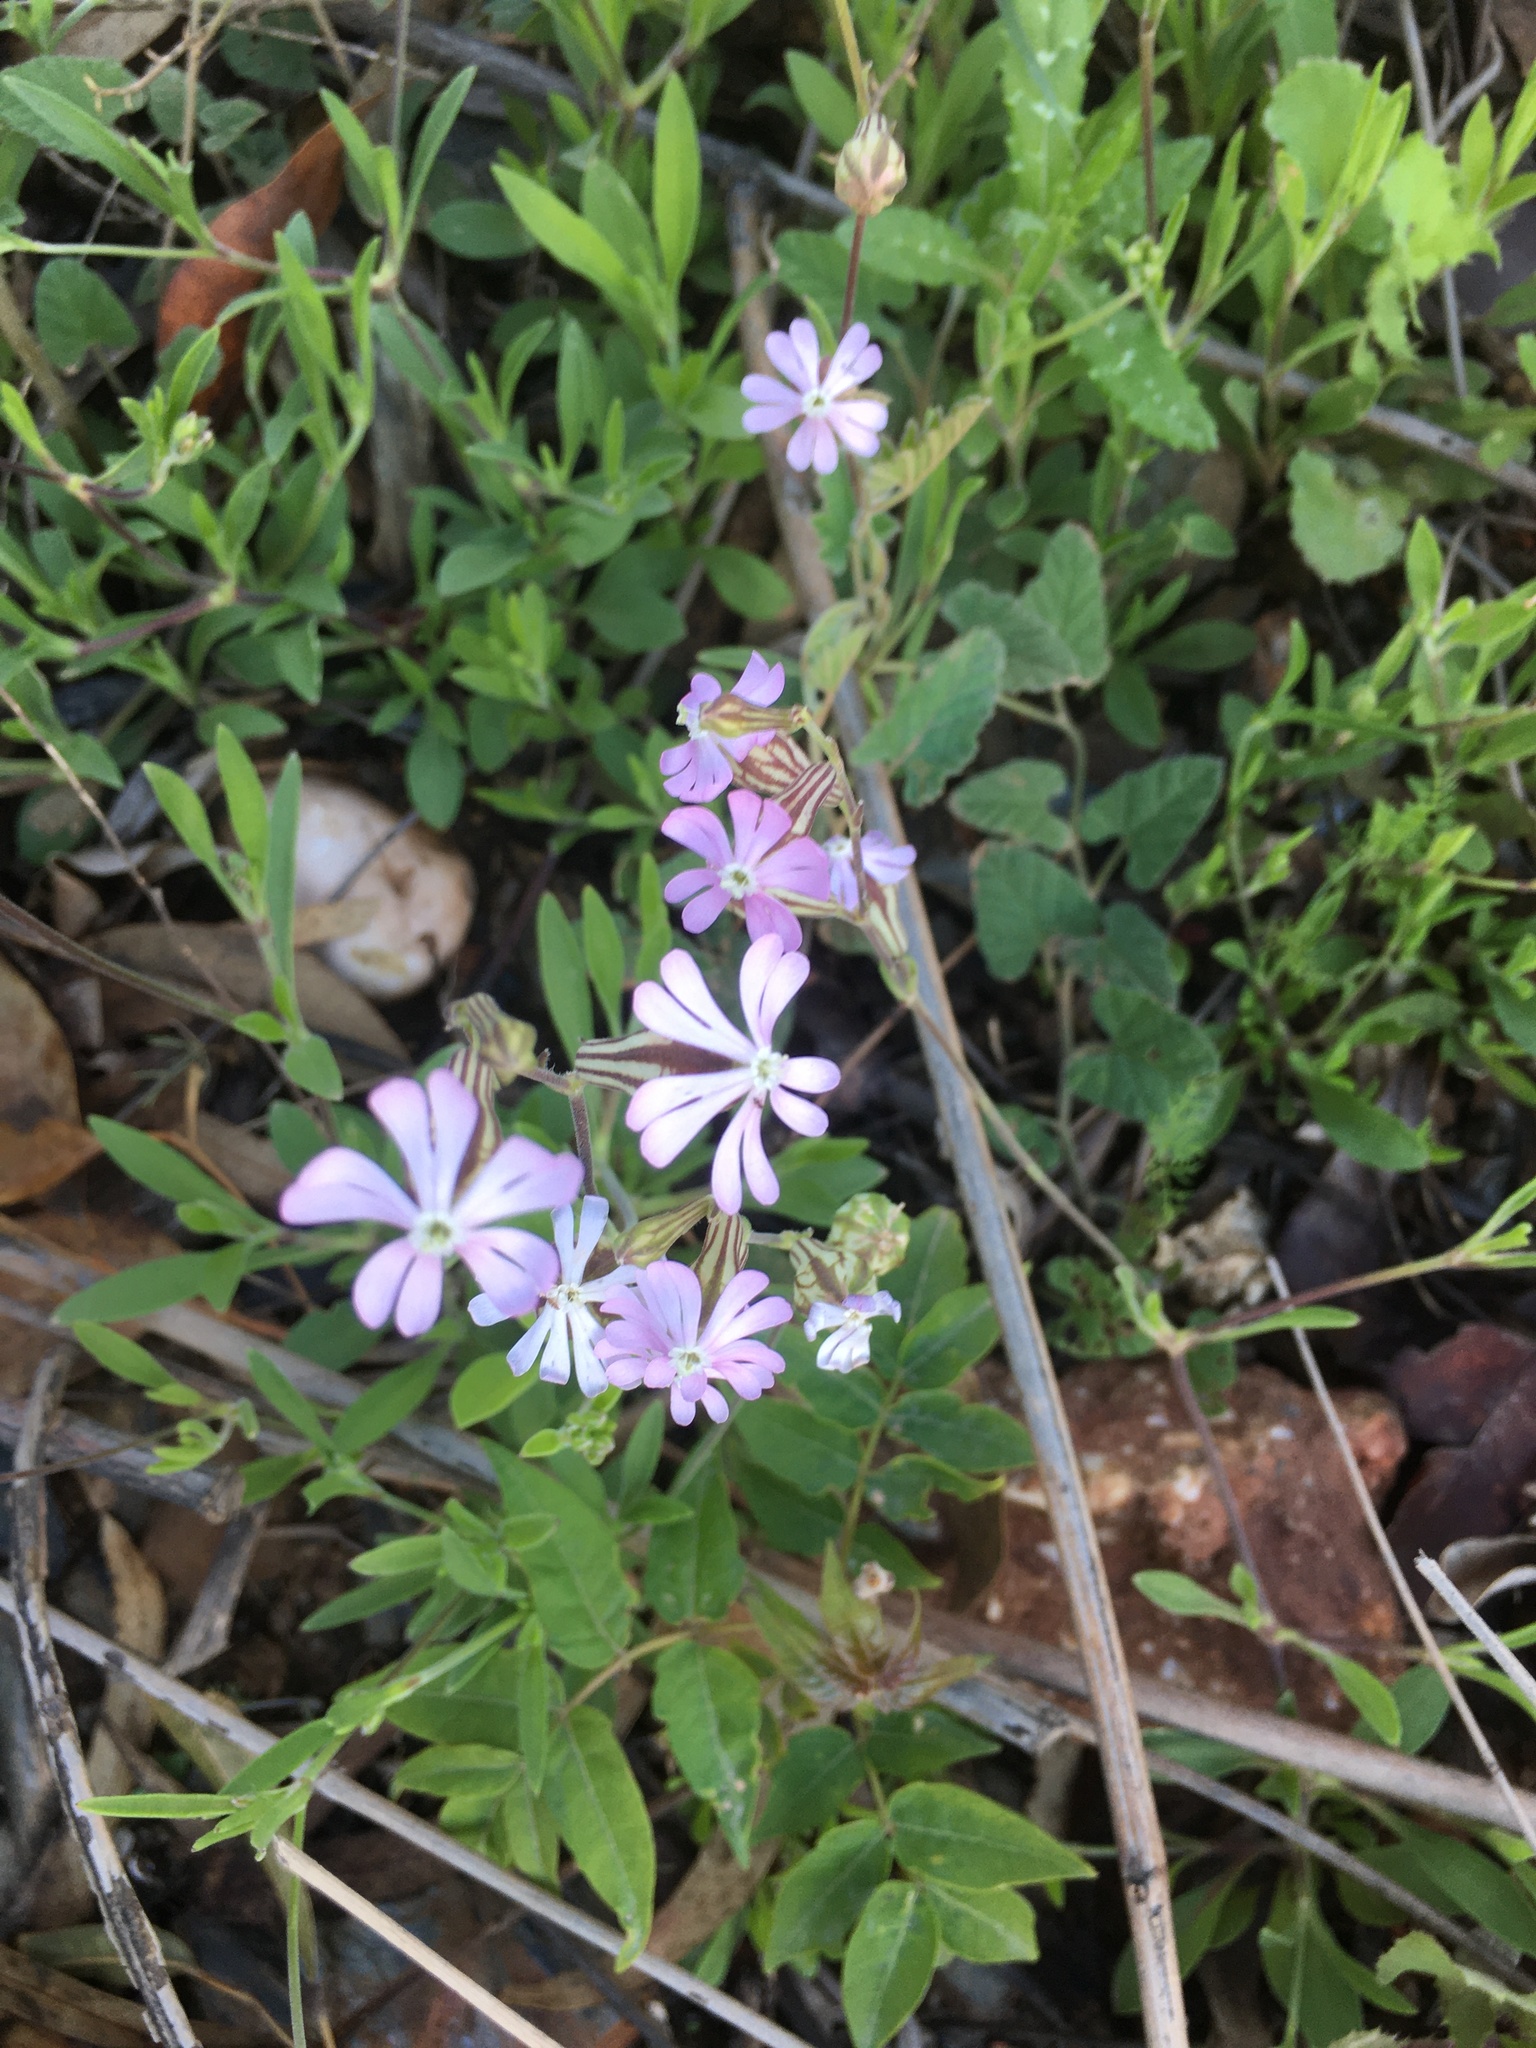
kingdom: Plantae
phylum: Tracheophyta
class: Magnoliopsida
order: Caryophyllales
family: Caryophyllaceae
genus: Silene
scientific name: Silene colorata
